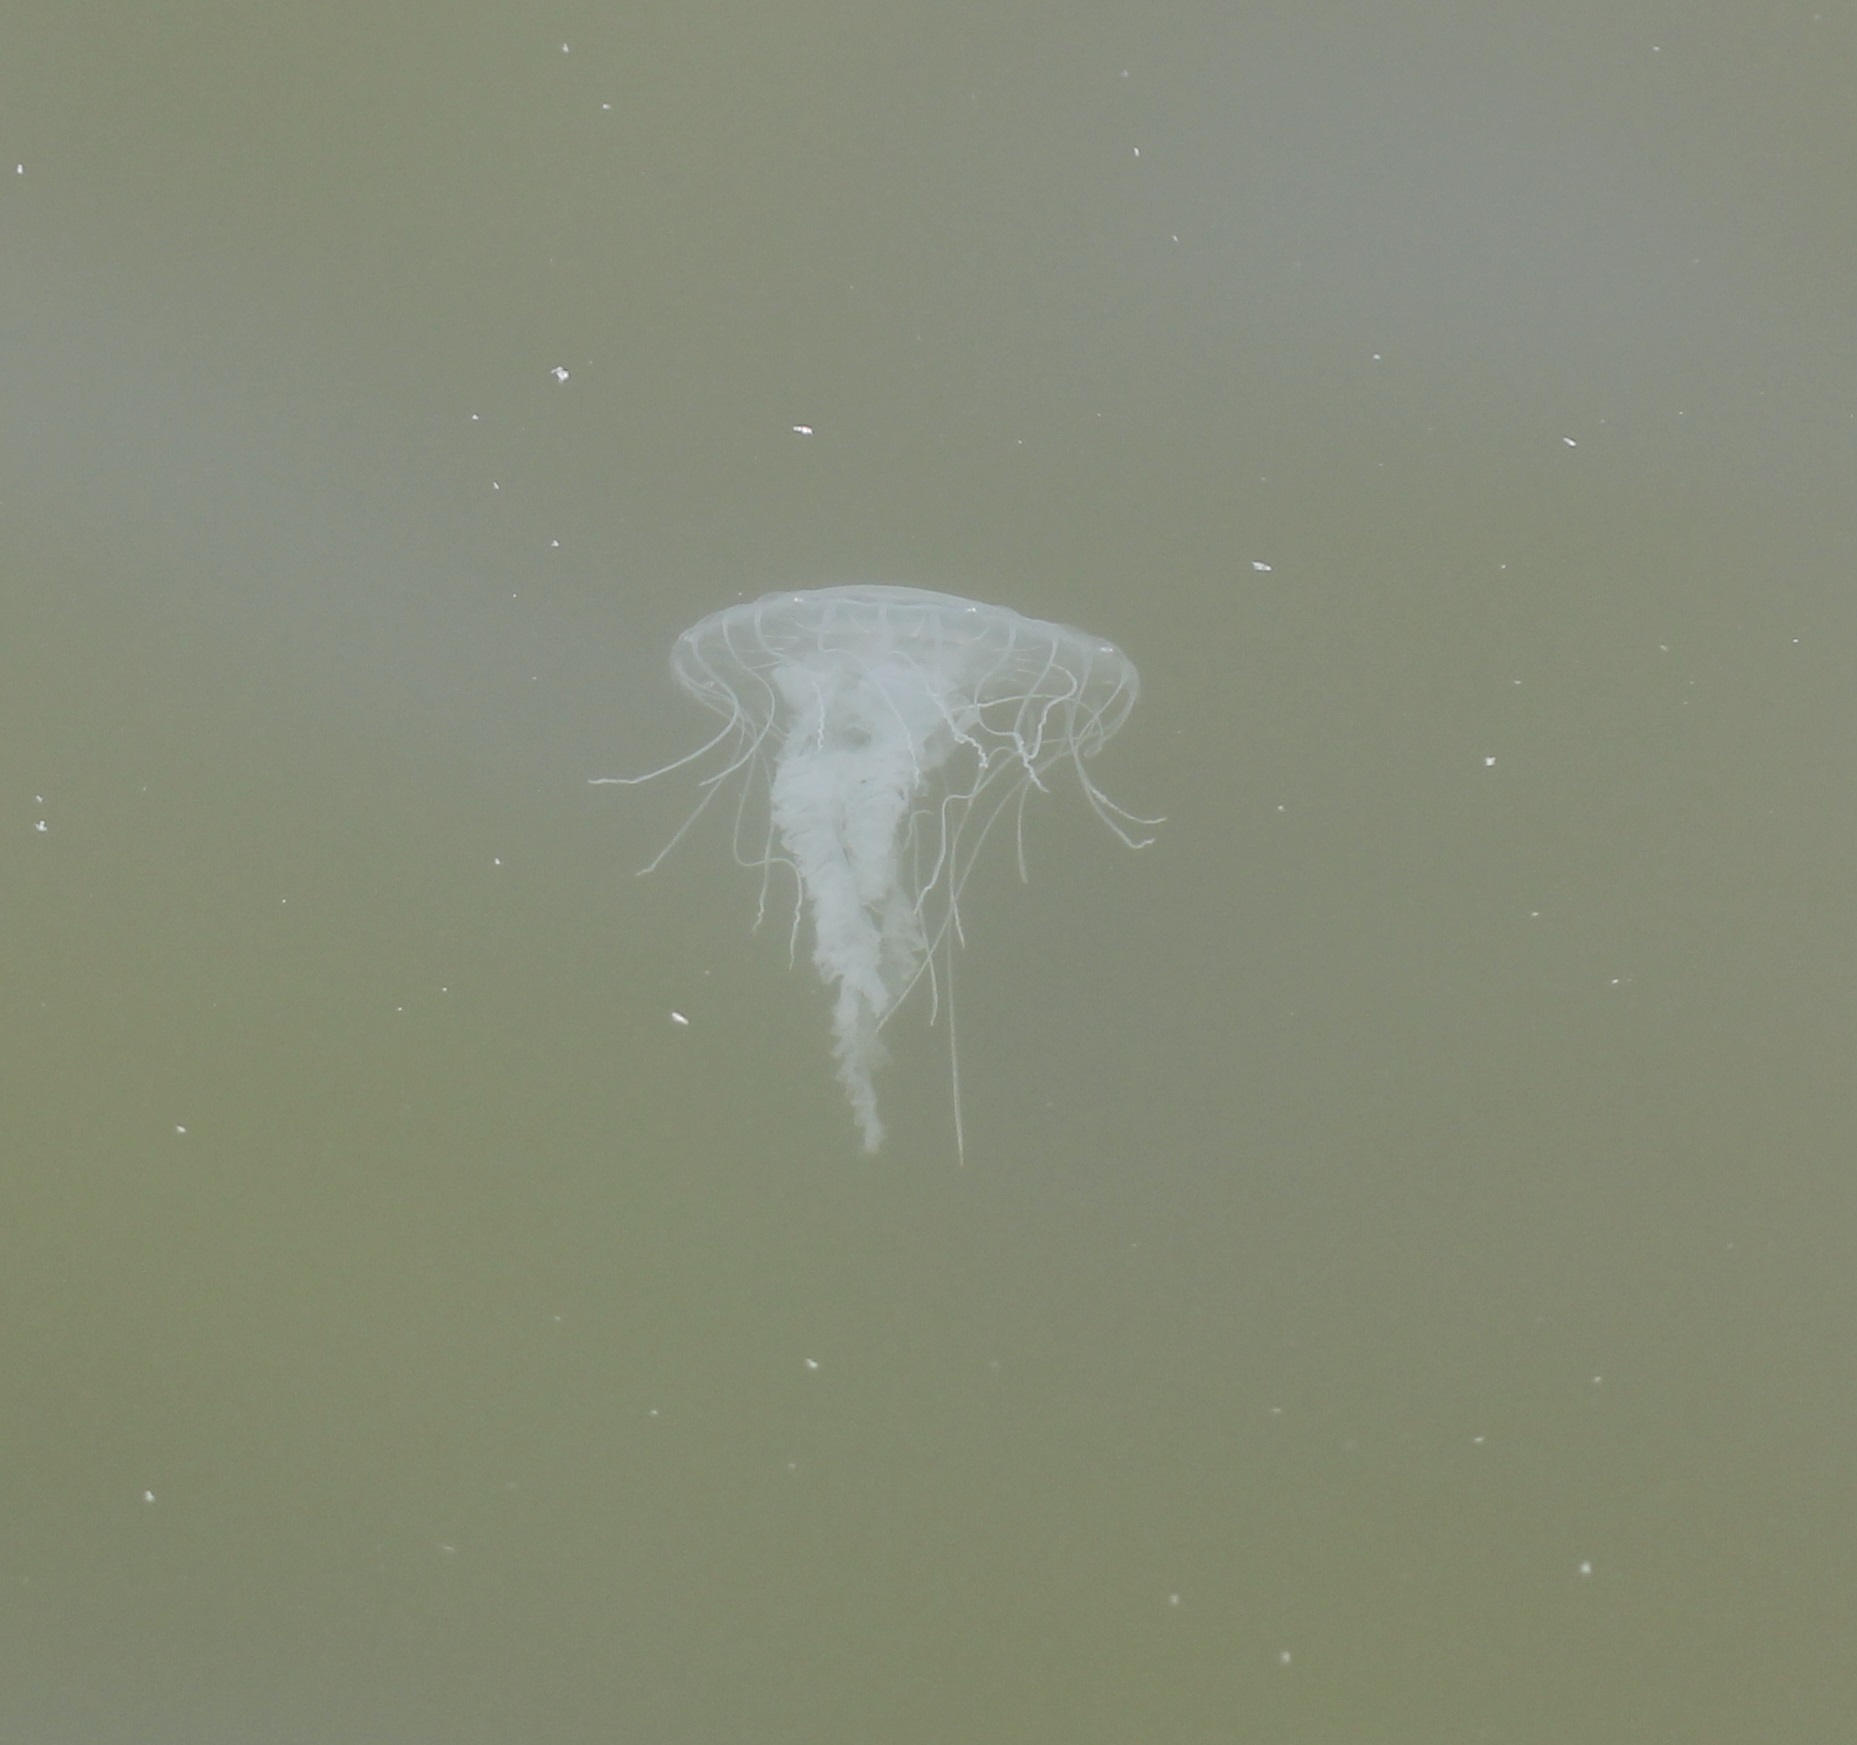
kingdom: Animalia
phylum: Cnidaria
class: Scyphozoa
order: Semaeostomeae
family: Pelagiidae
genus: Chrysaora
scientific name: Chrysaora chesapeakei
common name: Bay nettle
